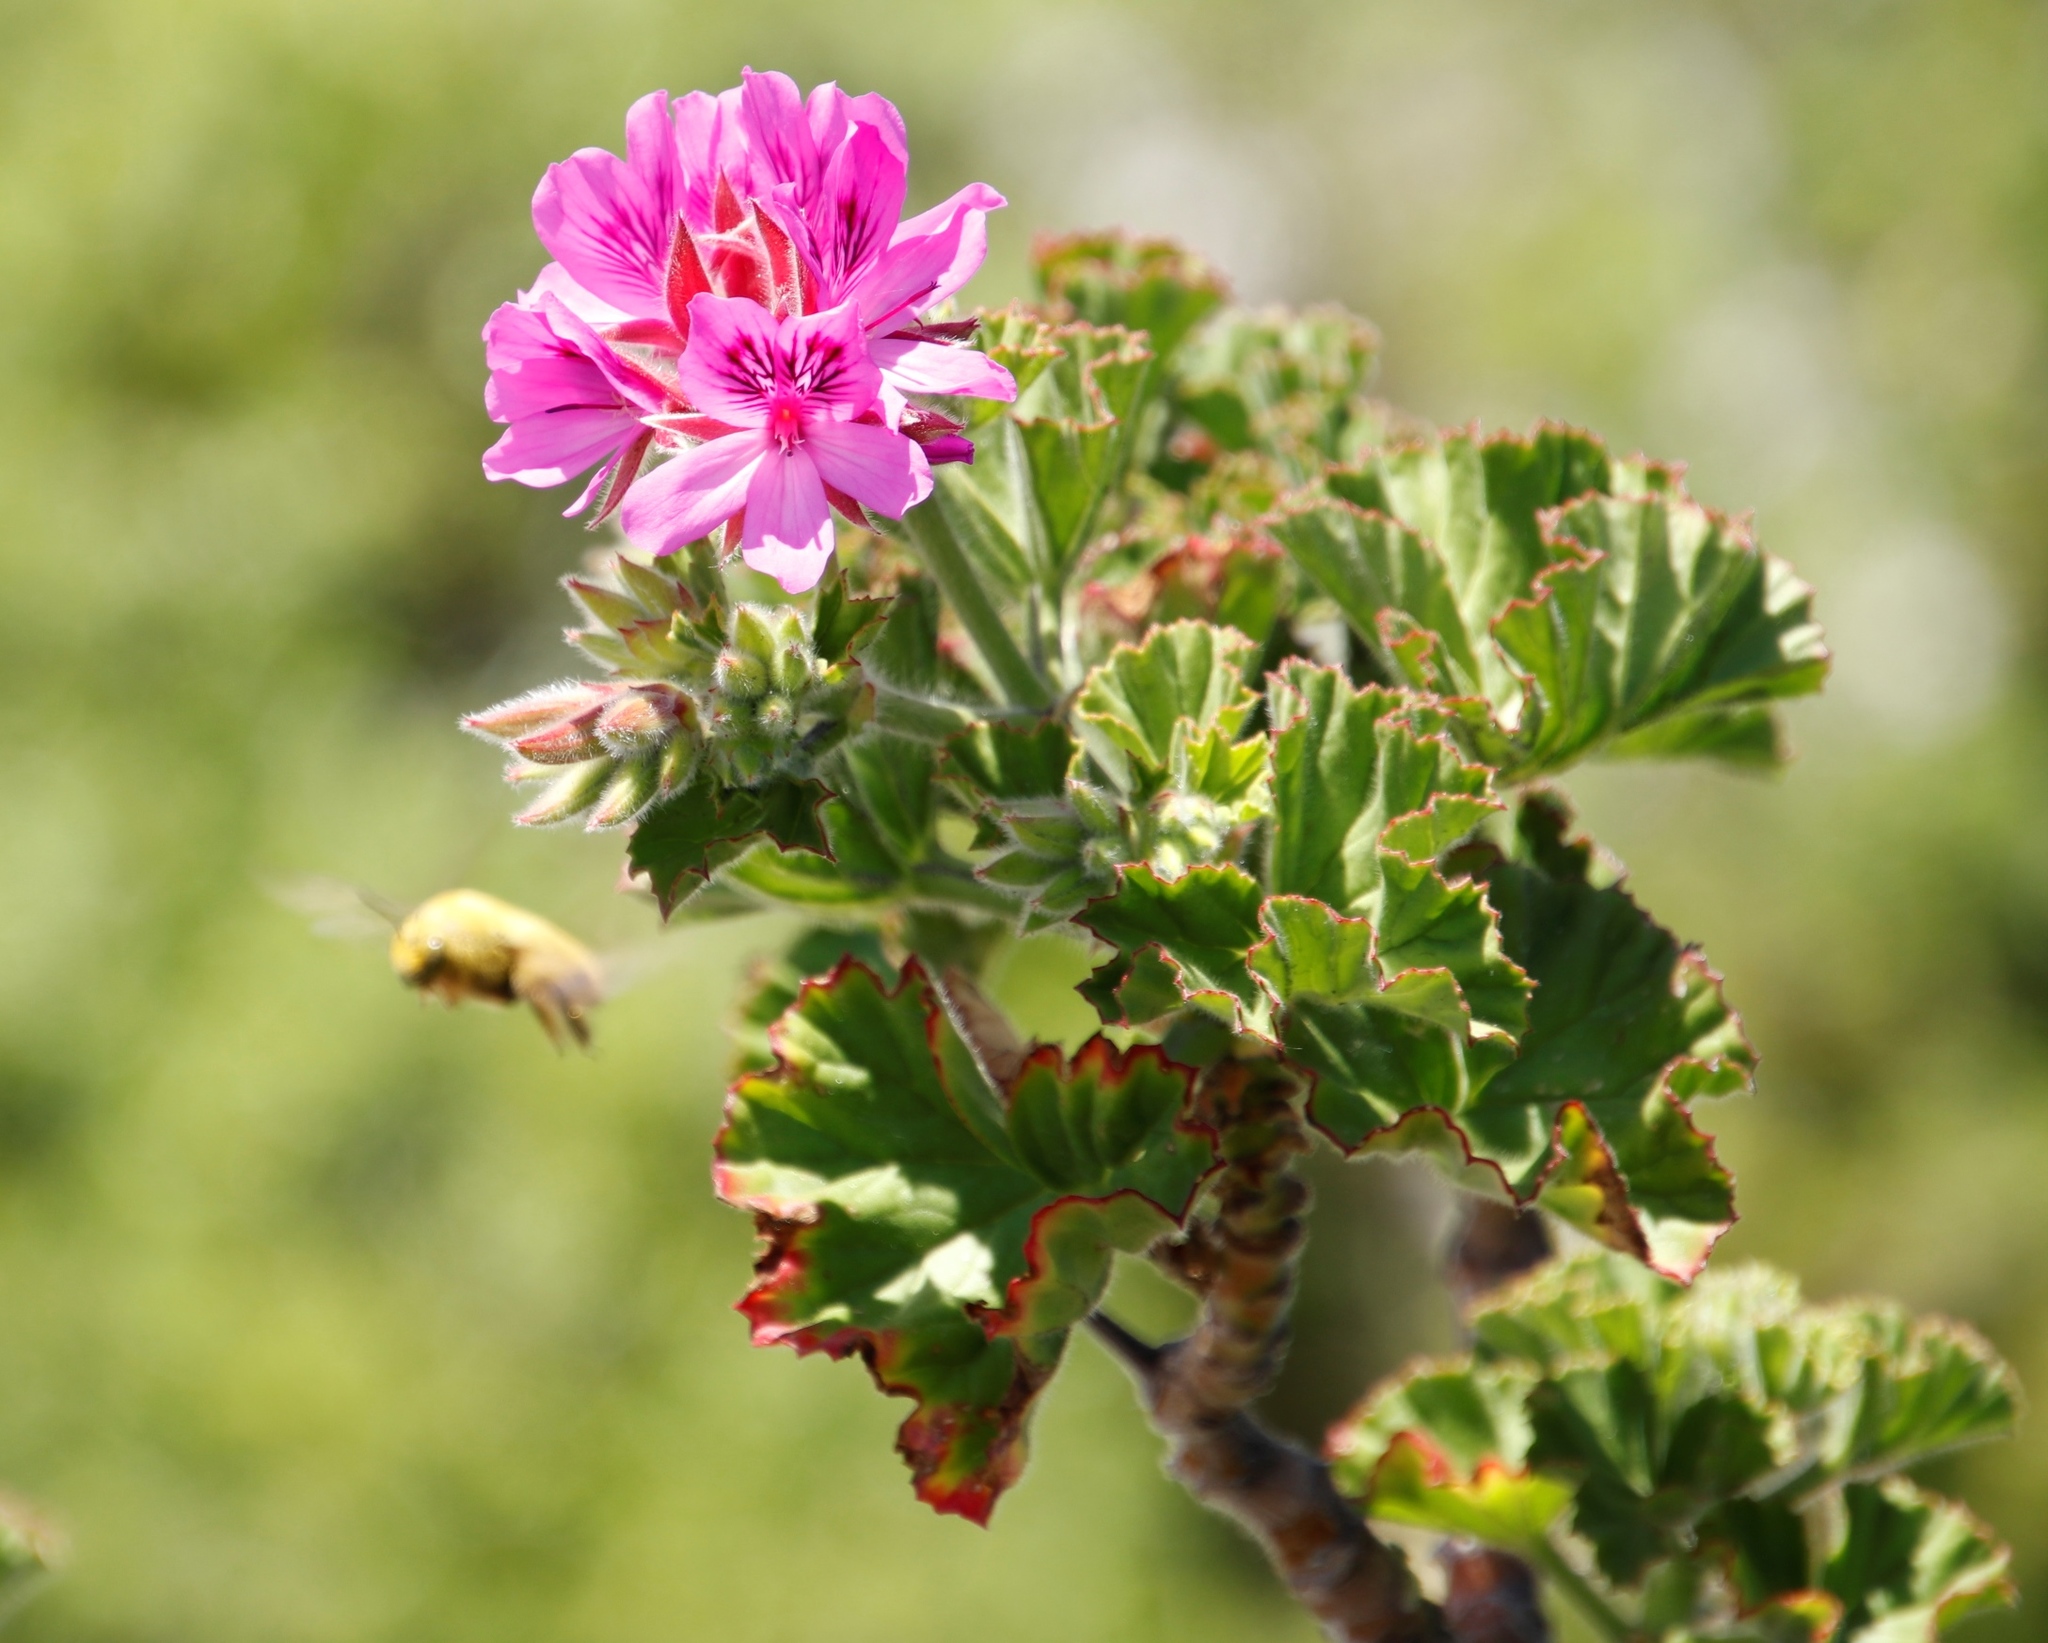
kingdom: Plantae
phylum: Tracheophyta
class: Magnoliopsida
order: Geraniales
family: Geraniaceae
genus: Pelargonium
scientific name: Pelargonium cucullatum
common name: Tree pelargonium
